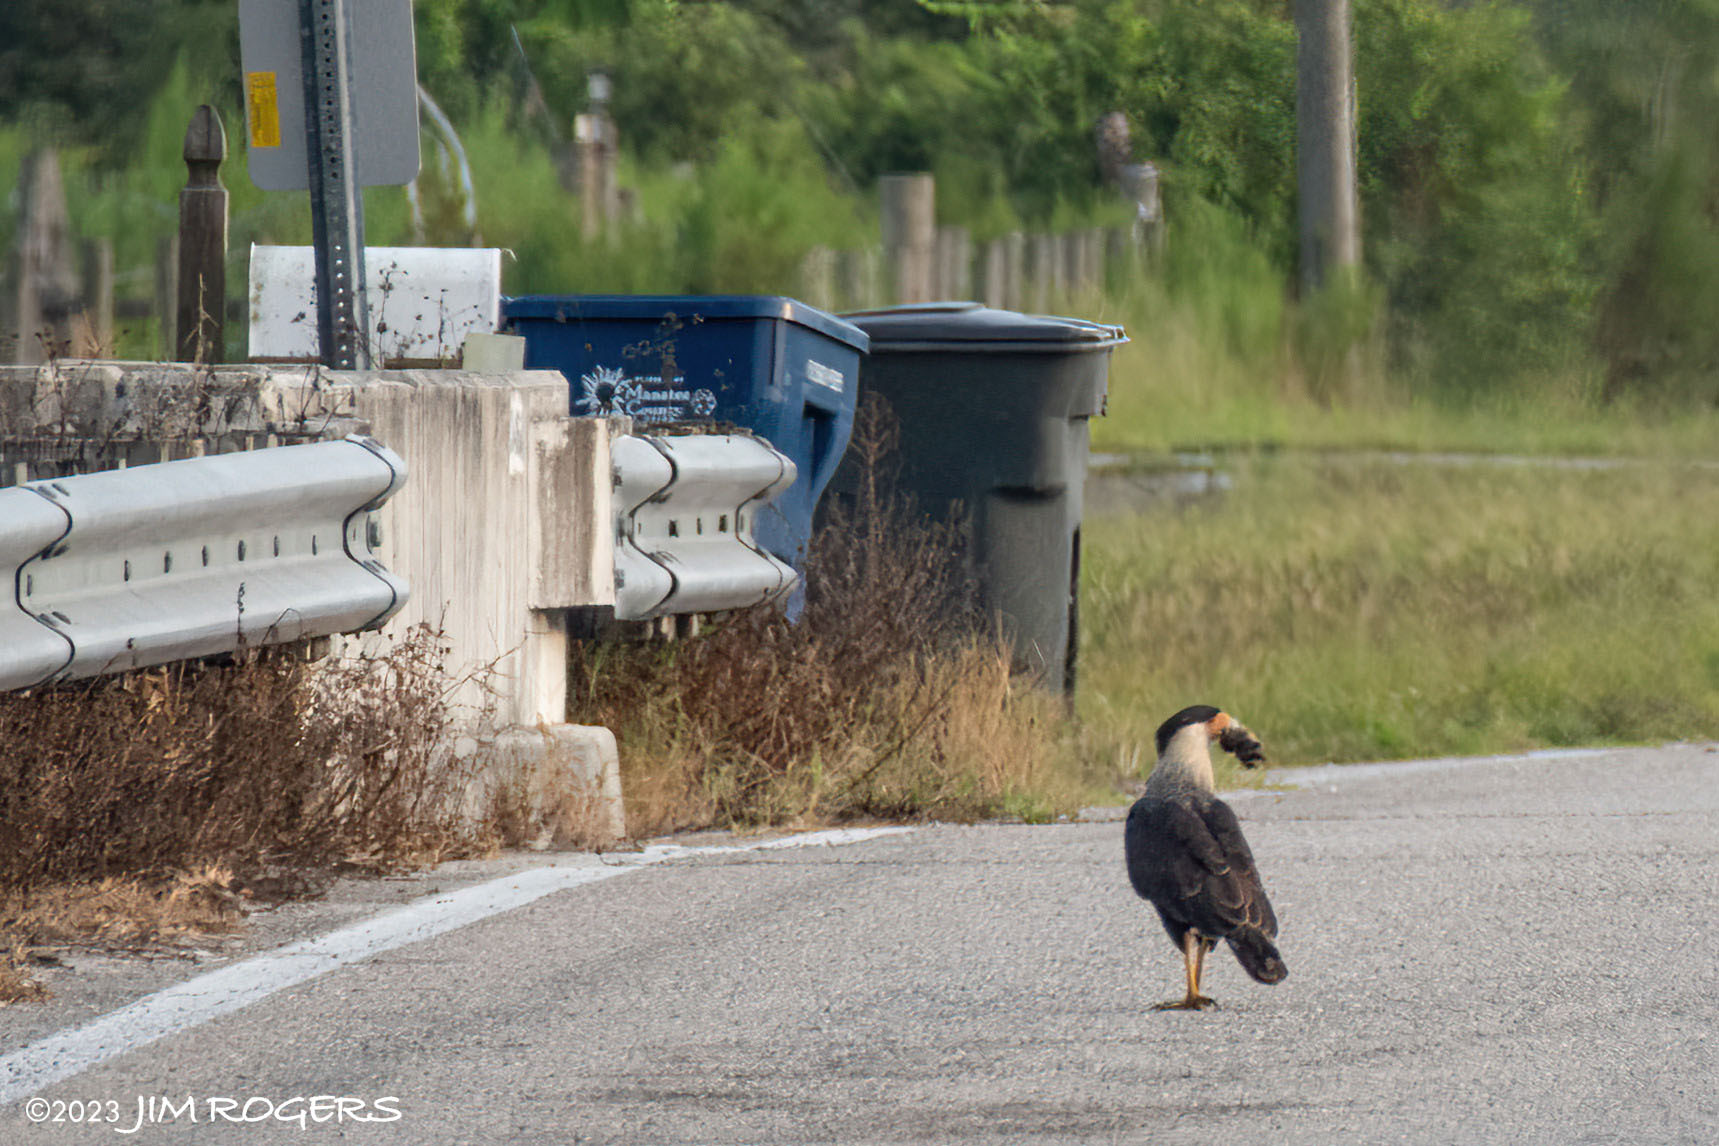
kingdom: Animalia
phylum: Chordata
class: Aves
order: Falconiformes
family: Falconidae
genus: Caracara
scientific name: Caracara plancus
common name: Southern caracara
